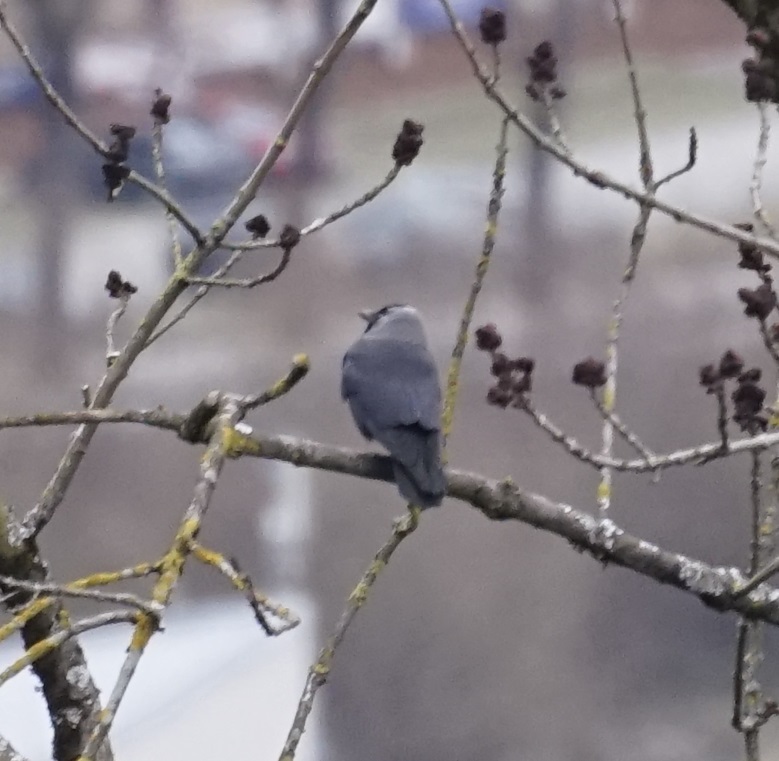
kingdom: Animalia
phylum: Chordata
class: Aves
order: Passeriformes
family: Corvidae
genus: Coloeus
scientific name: Coloeus monedula
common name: Western jackdaw
